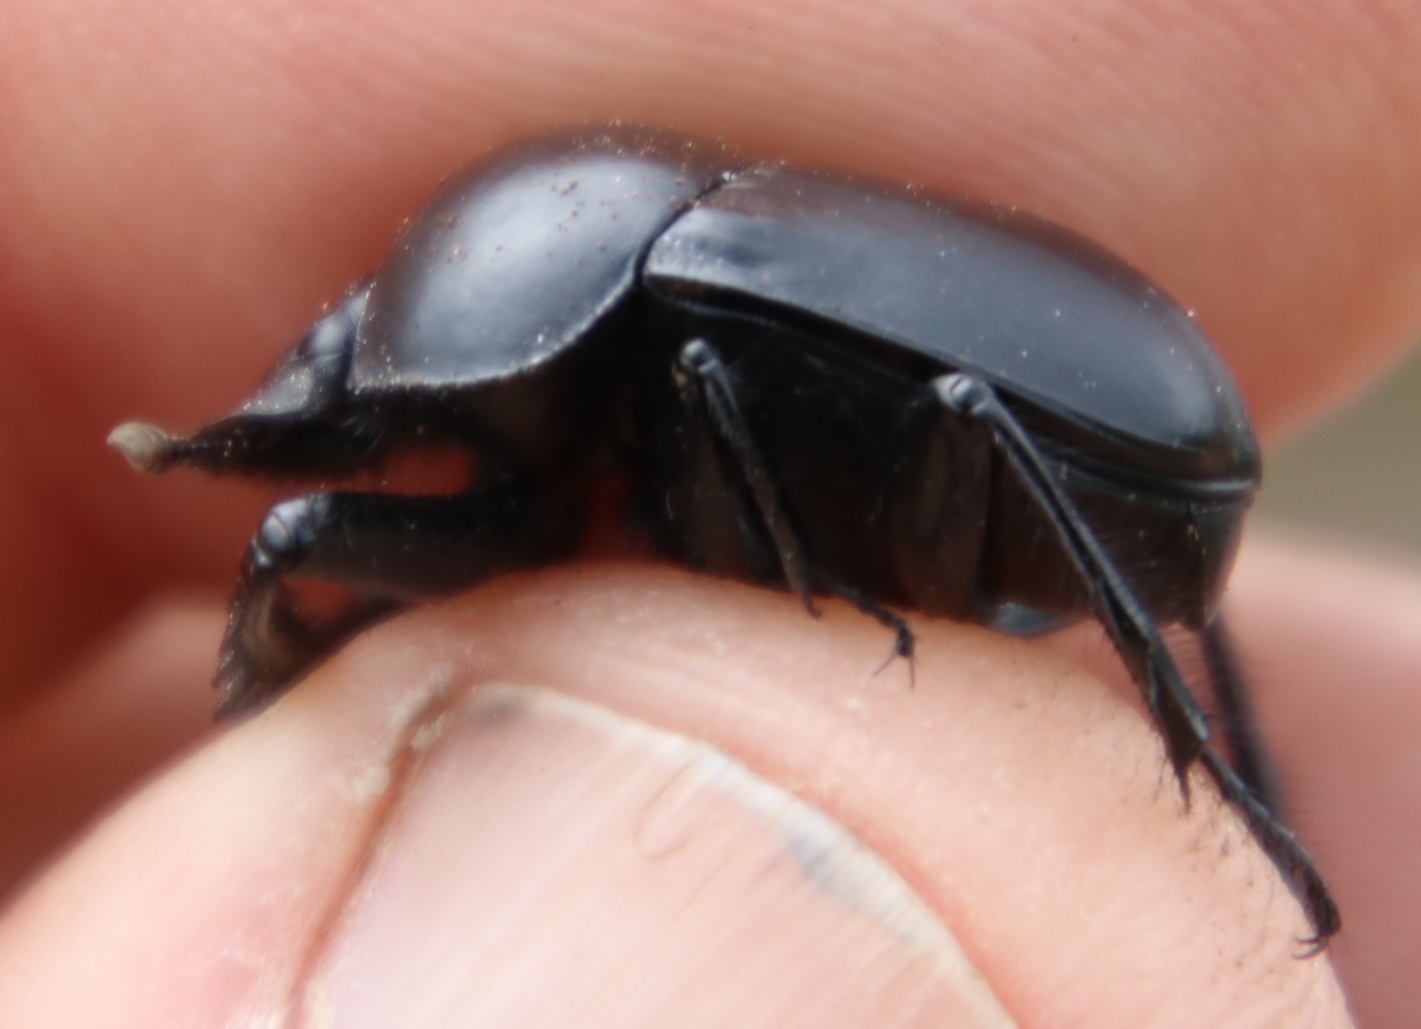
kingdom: Animalia
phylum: Arthropoda
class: Insecta
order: Coleoptera
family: Scarabaeidae
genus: Scarabaeus
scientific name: Scarabaeus convexus
